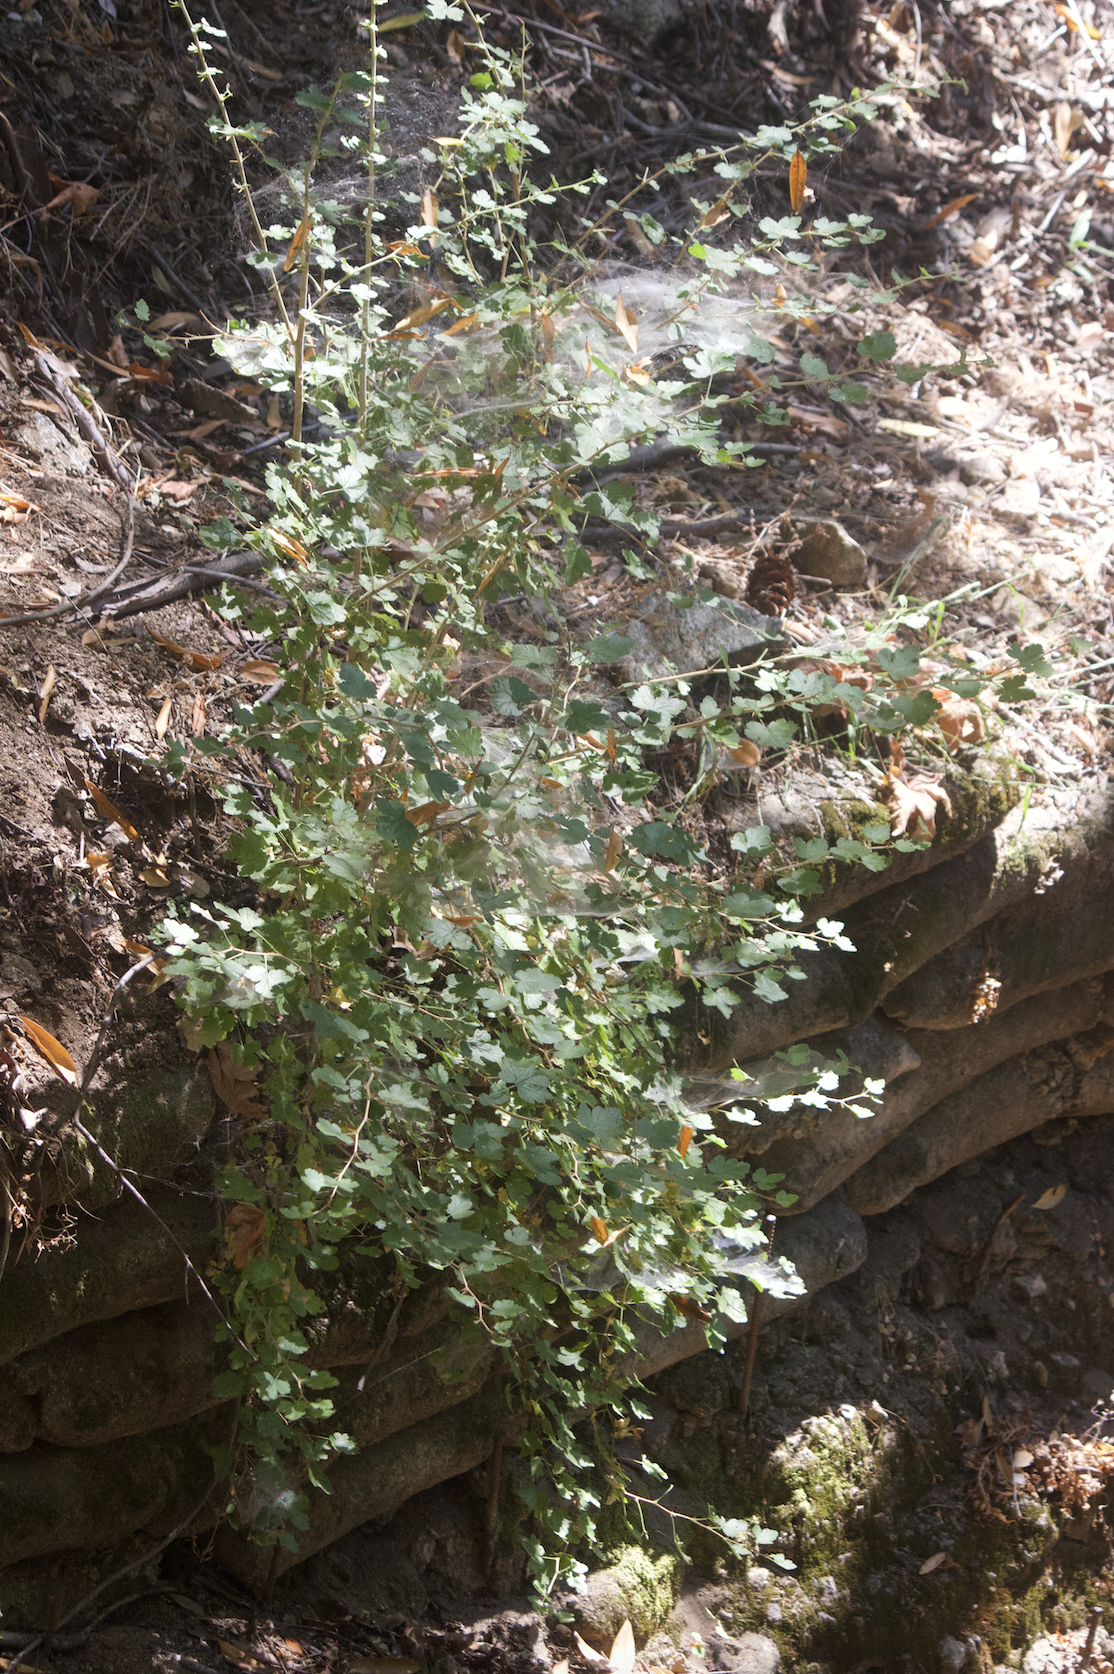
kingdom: Plantae
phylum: Tracheophyta
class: Magnoliopsida
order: Saxifragales
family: Grossulariaceae
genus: Ribes
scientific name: Ribes aureum
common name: Golden currant
